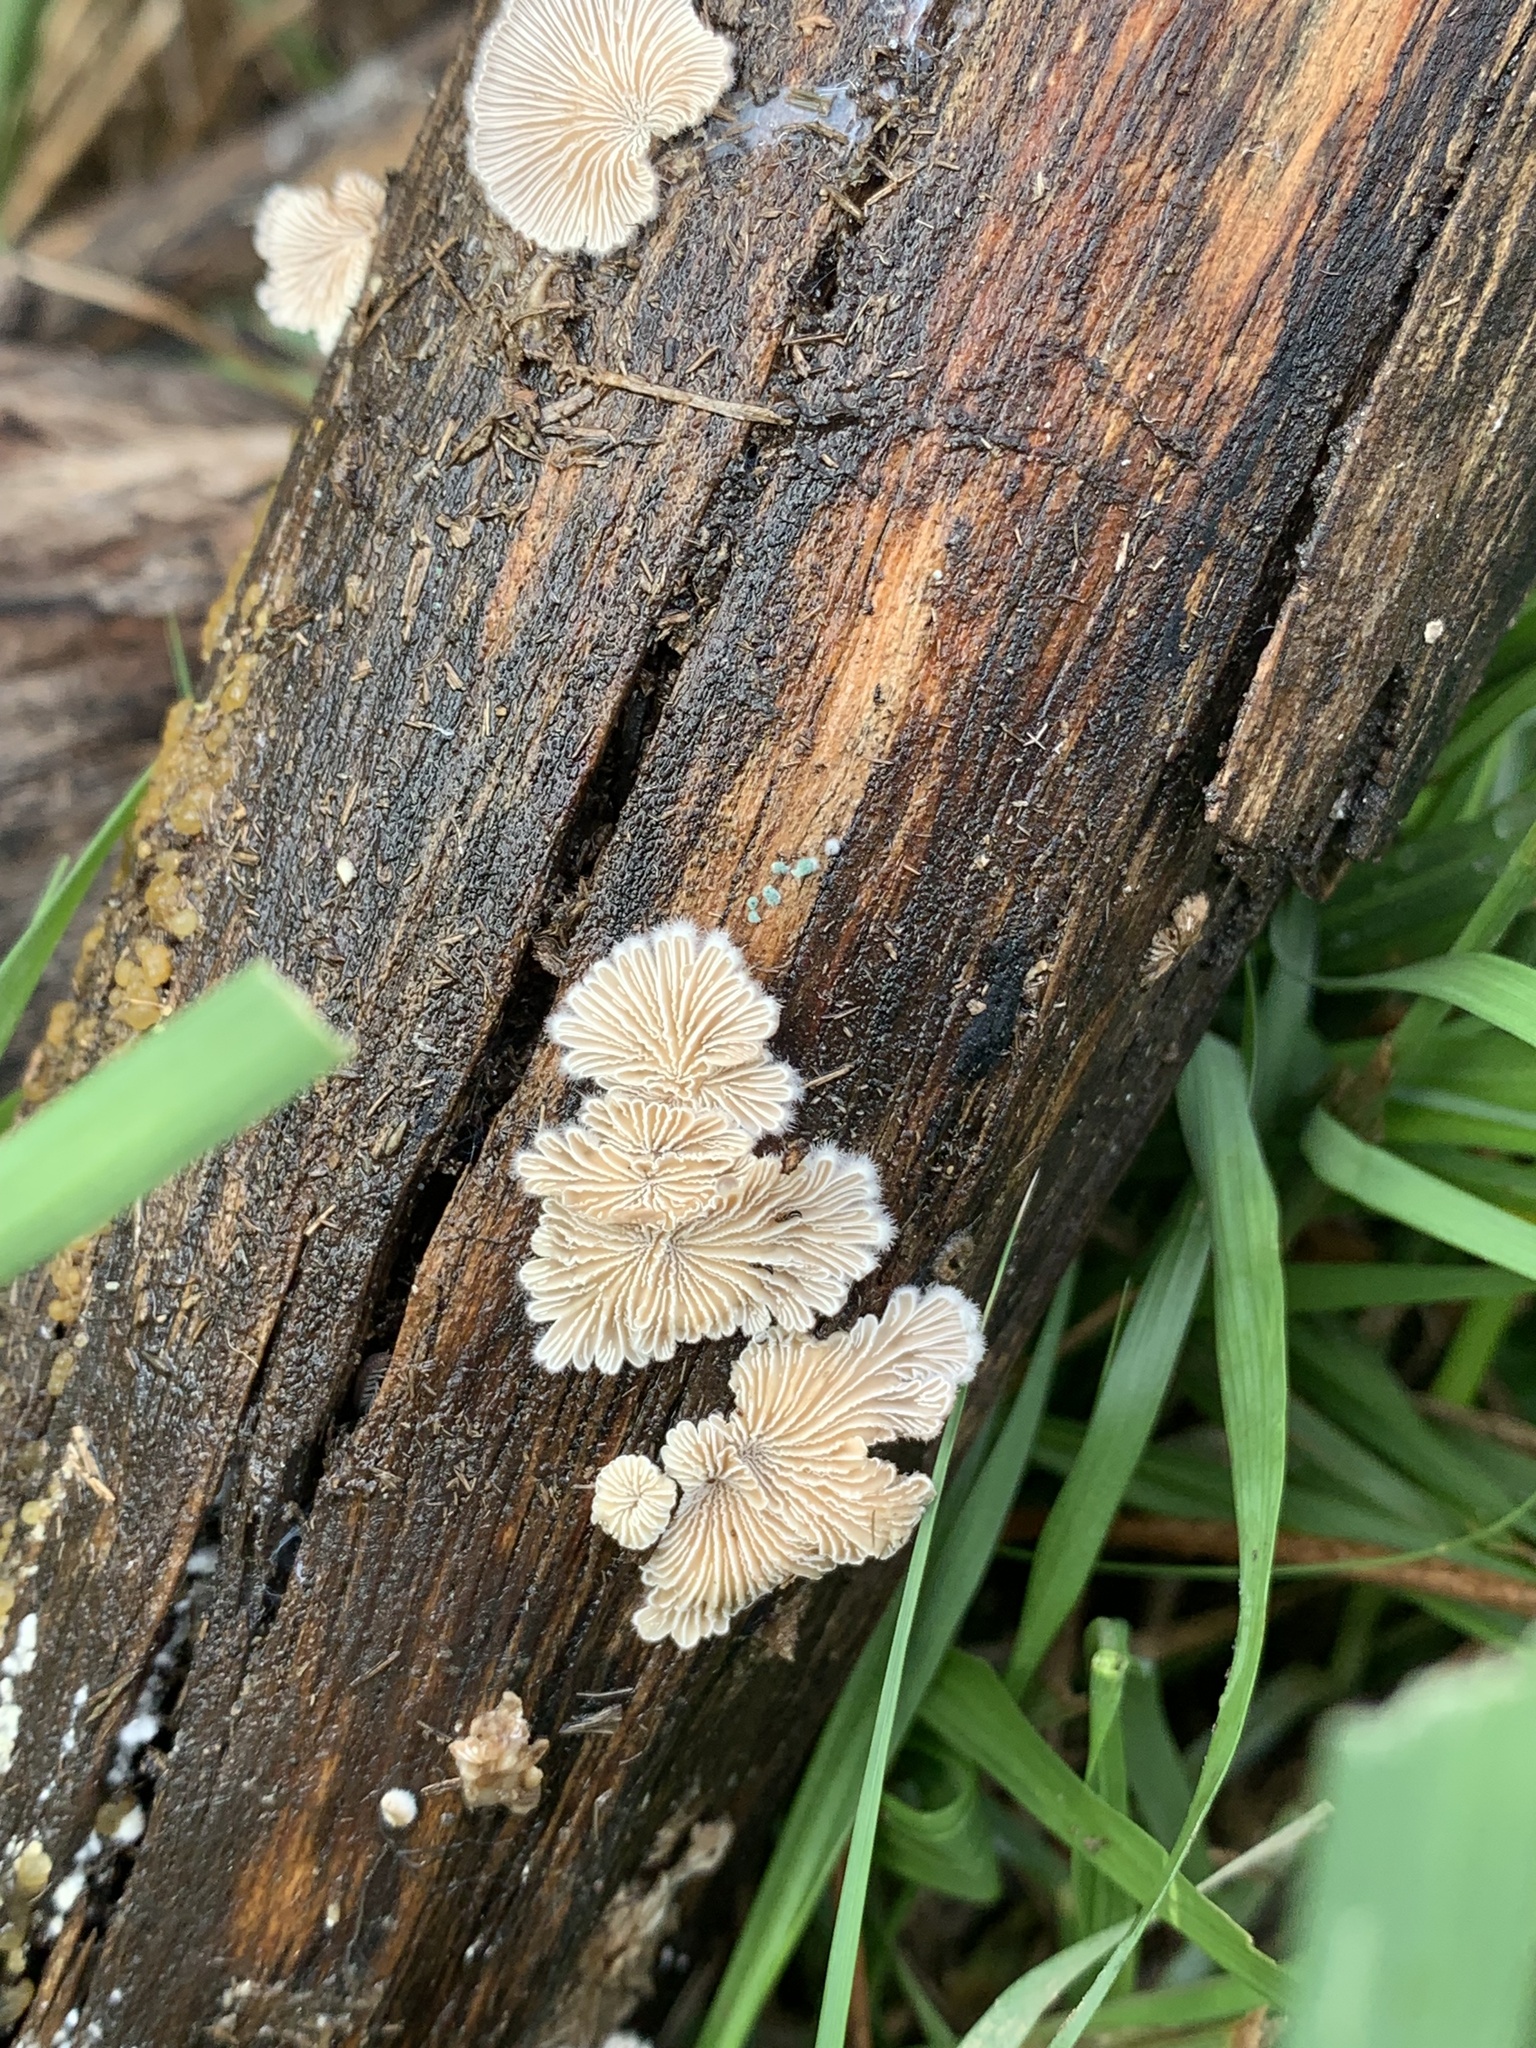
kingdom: Fungi
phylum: Basidiomycota
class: Agaricomycetes
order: Agaricales
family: Schizophyllaceae
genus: Schizophyllum
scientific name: Schizophyllum commune
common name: Common porecrust
